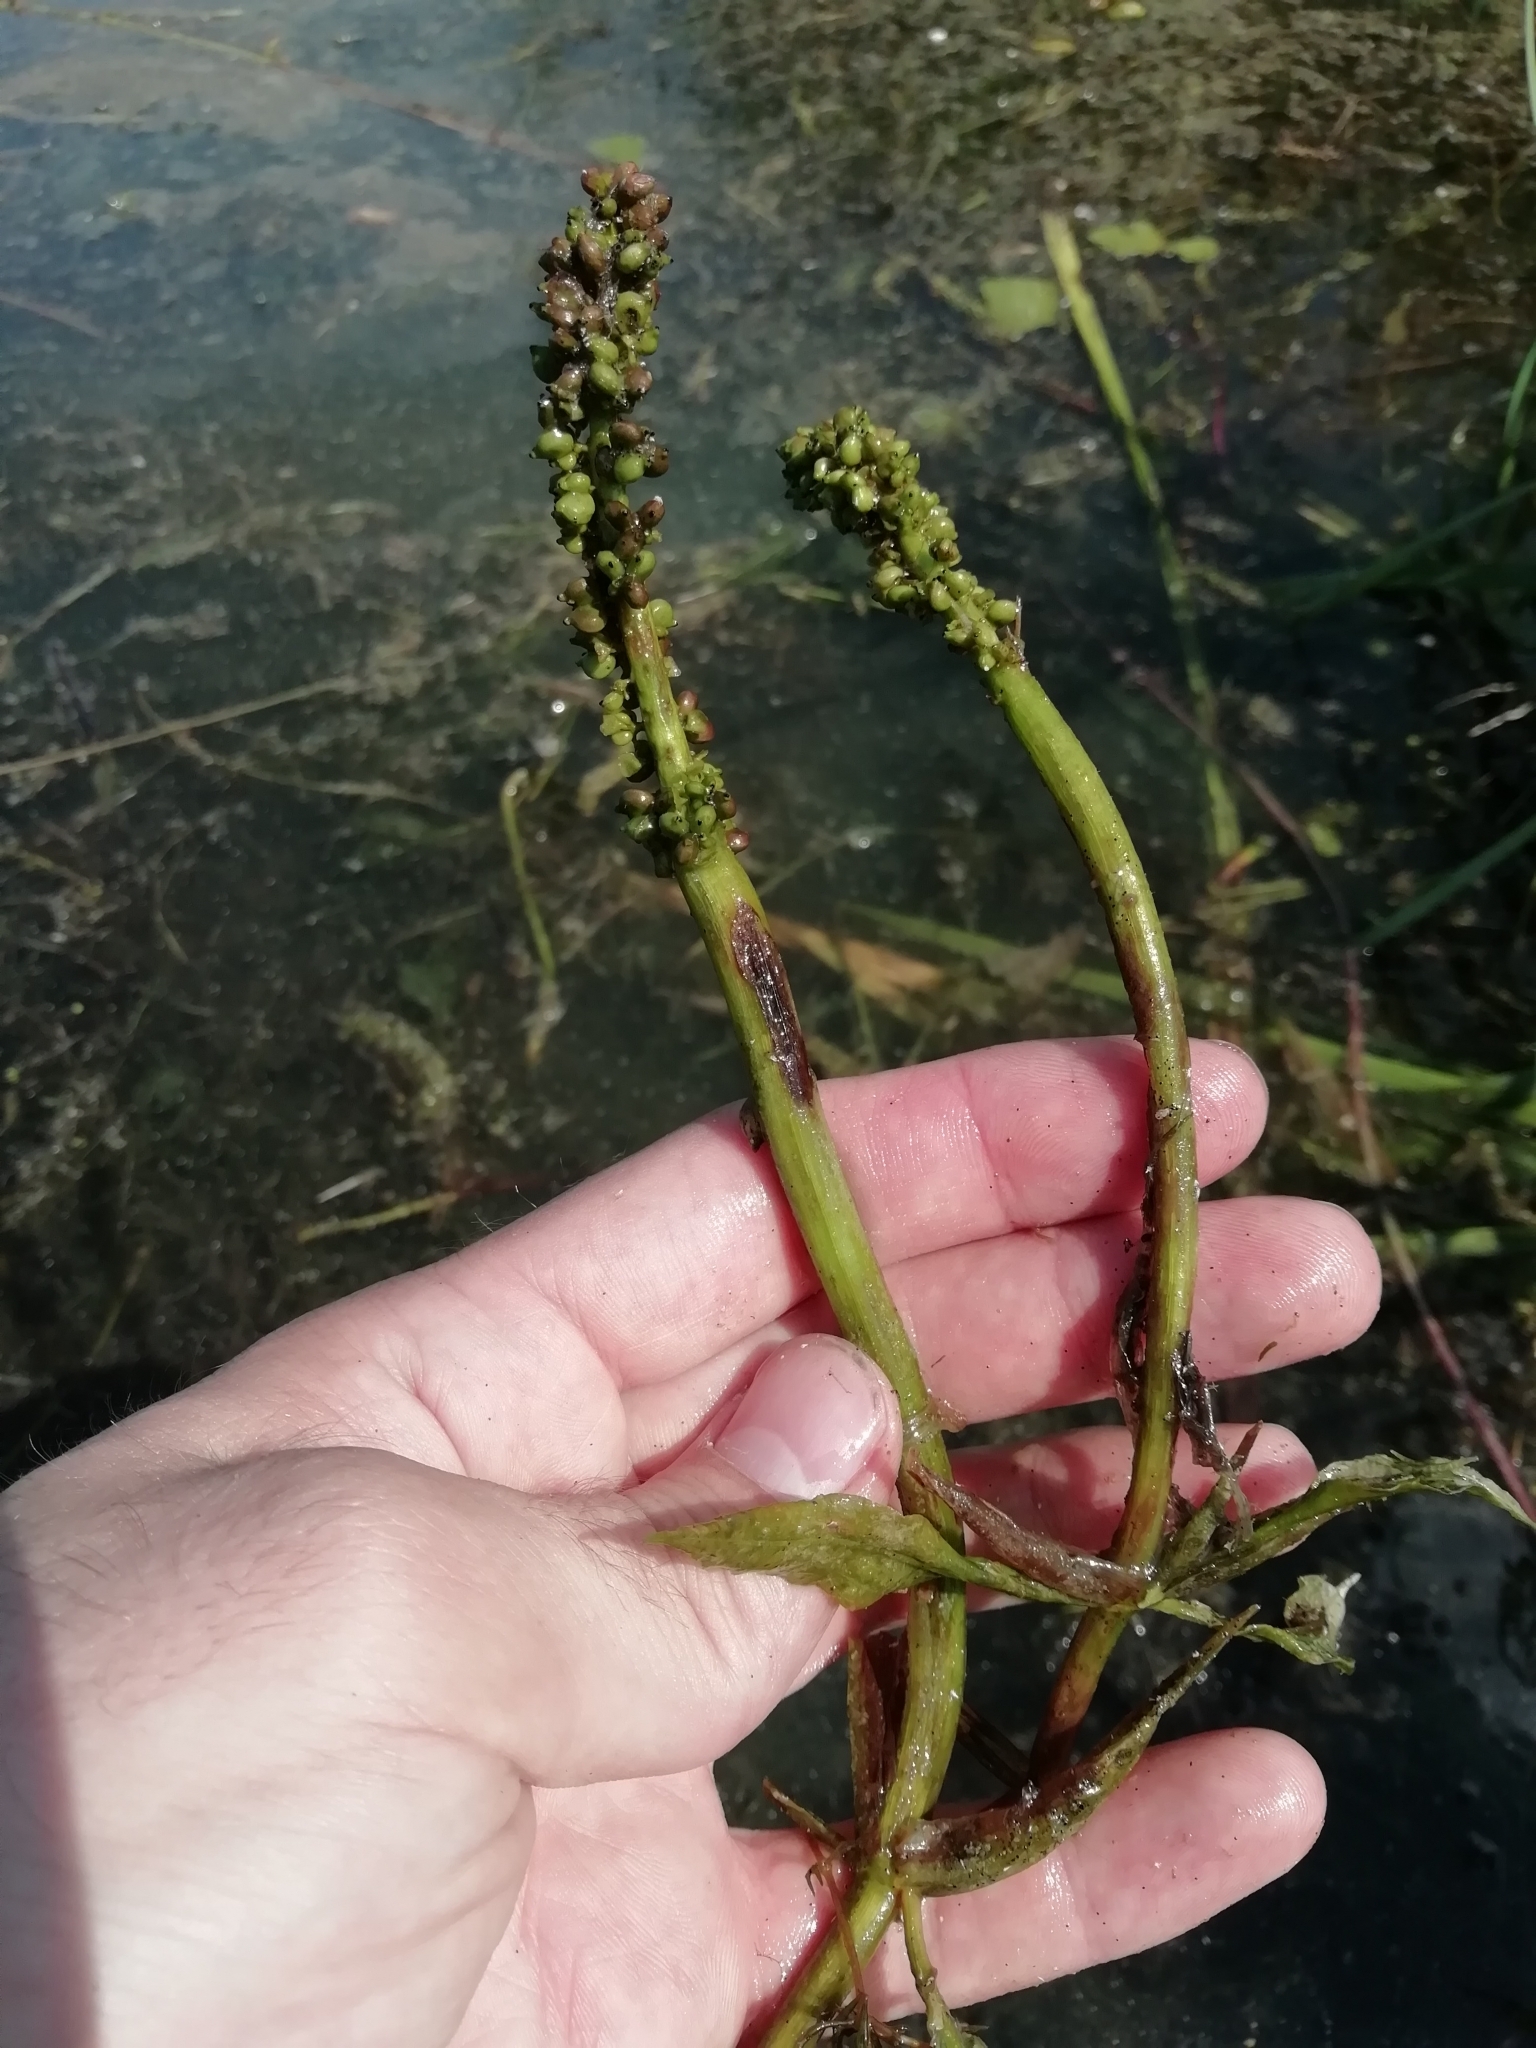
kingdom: Plantae
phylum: Tracheophyta
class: Liliopsida
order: Alismatales
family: Potamogetonaceae
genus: Potamogeton
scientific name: Potamogeton lucens
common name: Shining pondweed
